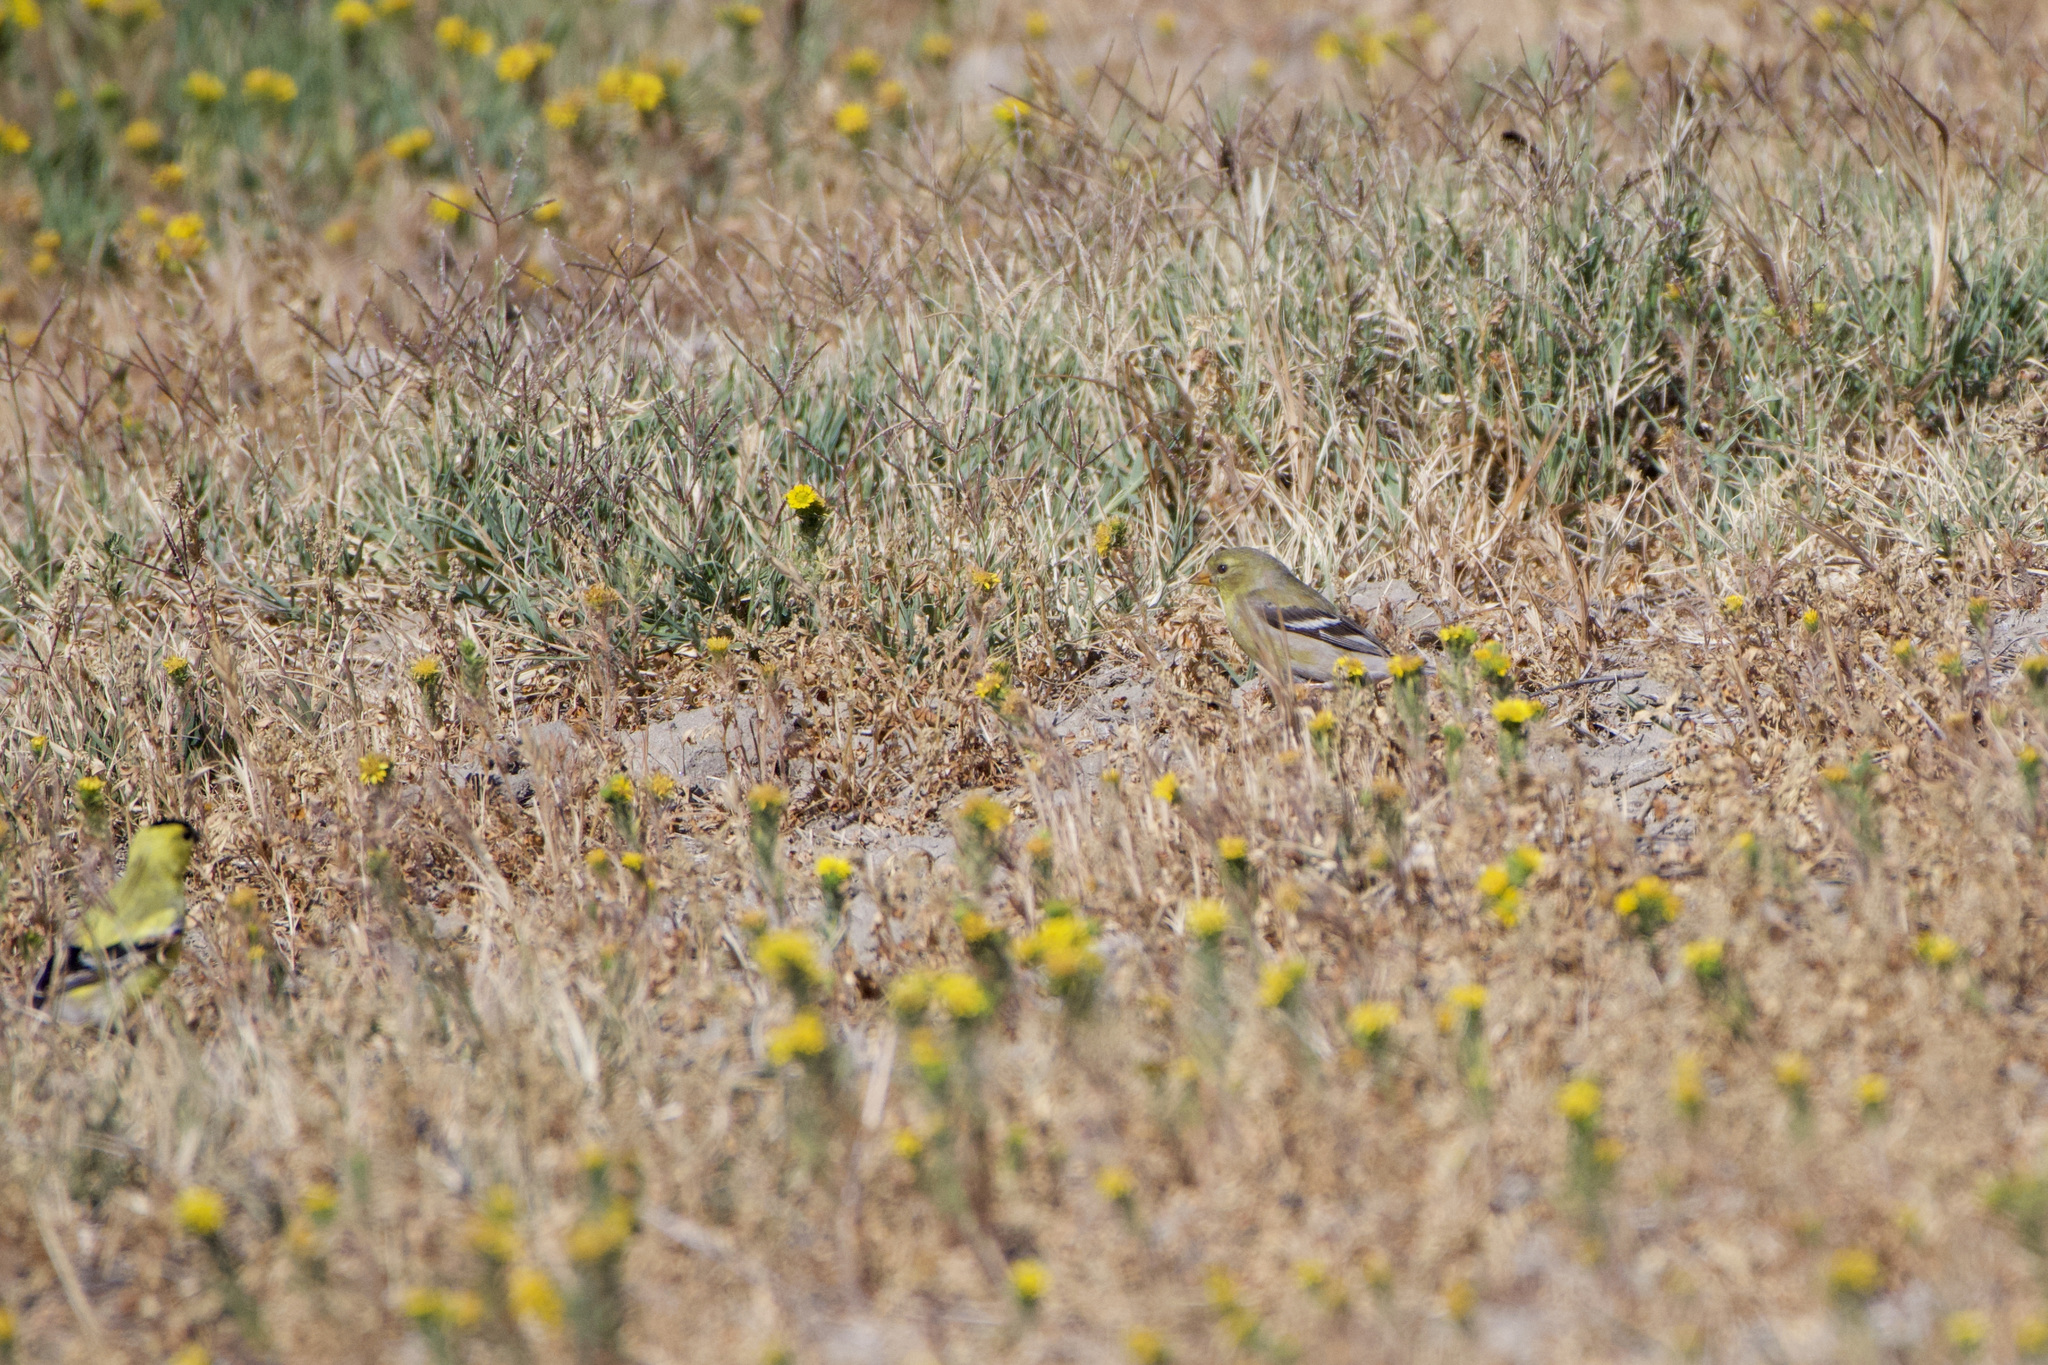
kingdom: Animalia
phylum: Chordata
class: Aves
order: Passeriformes
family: Fringillidae
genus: Spinus
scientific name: Spinus tristis
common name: American goldfinch
